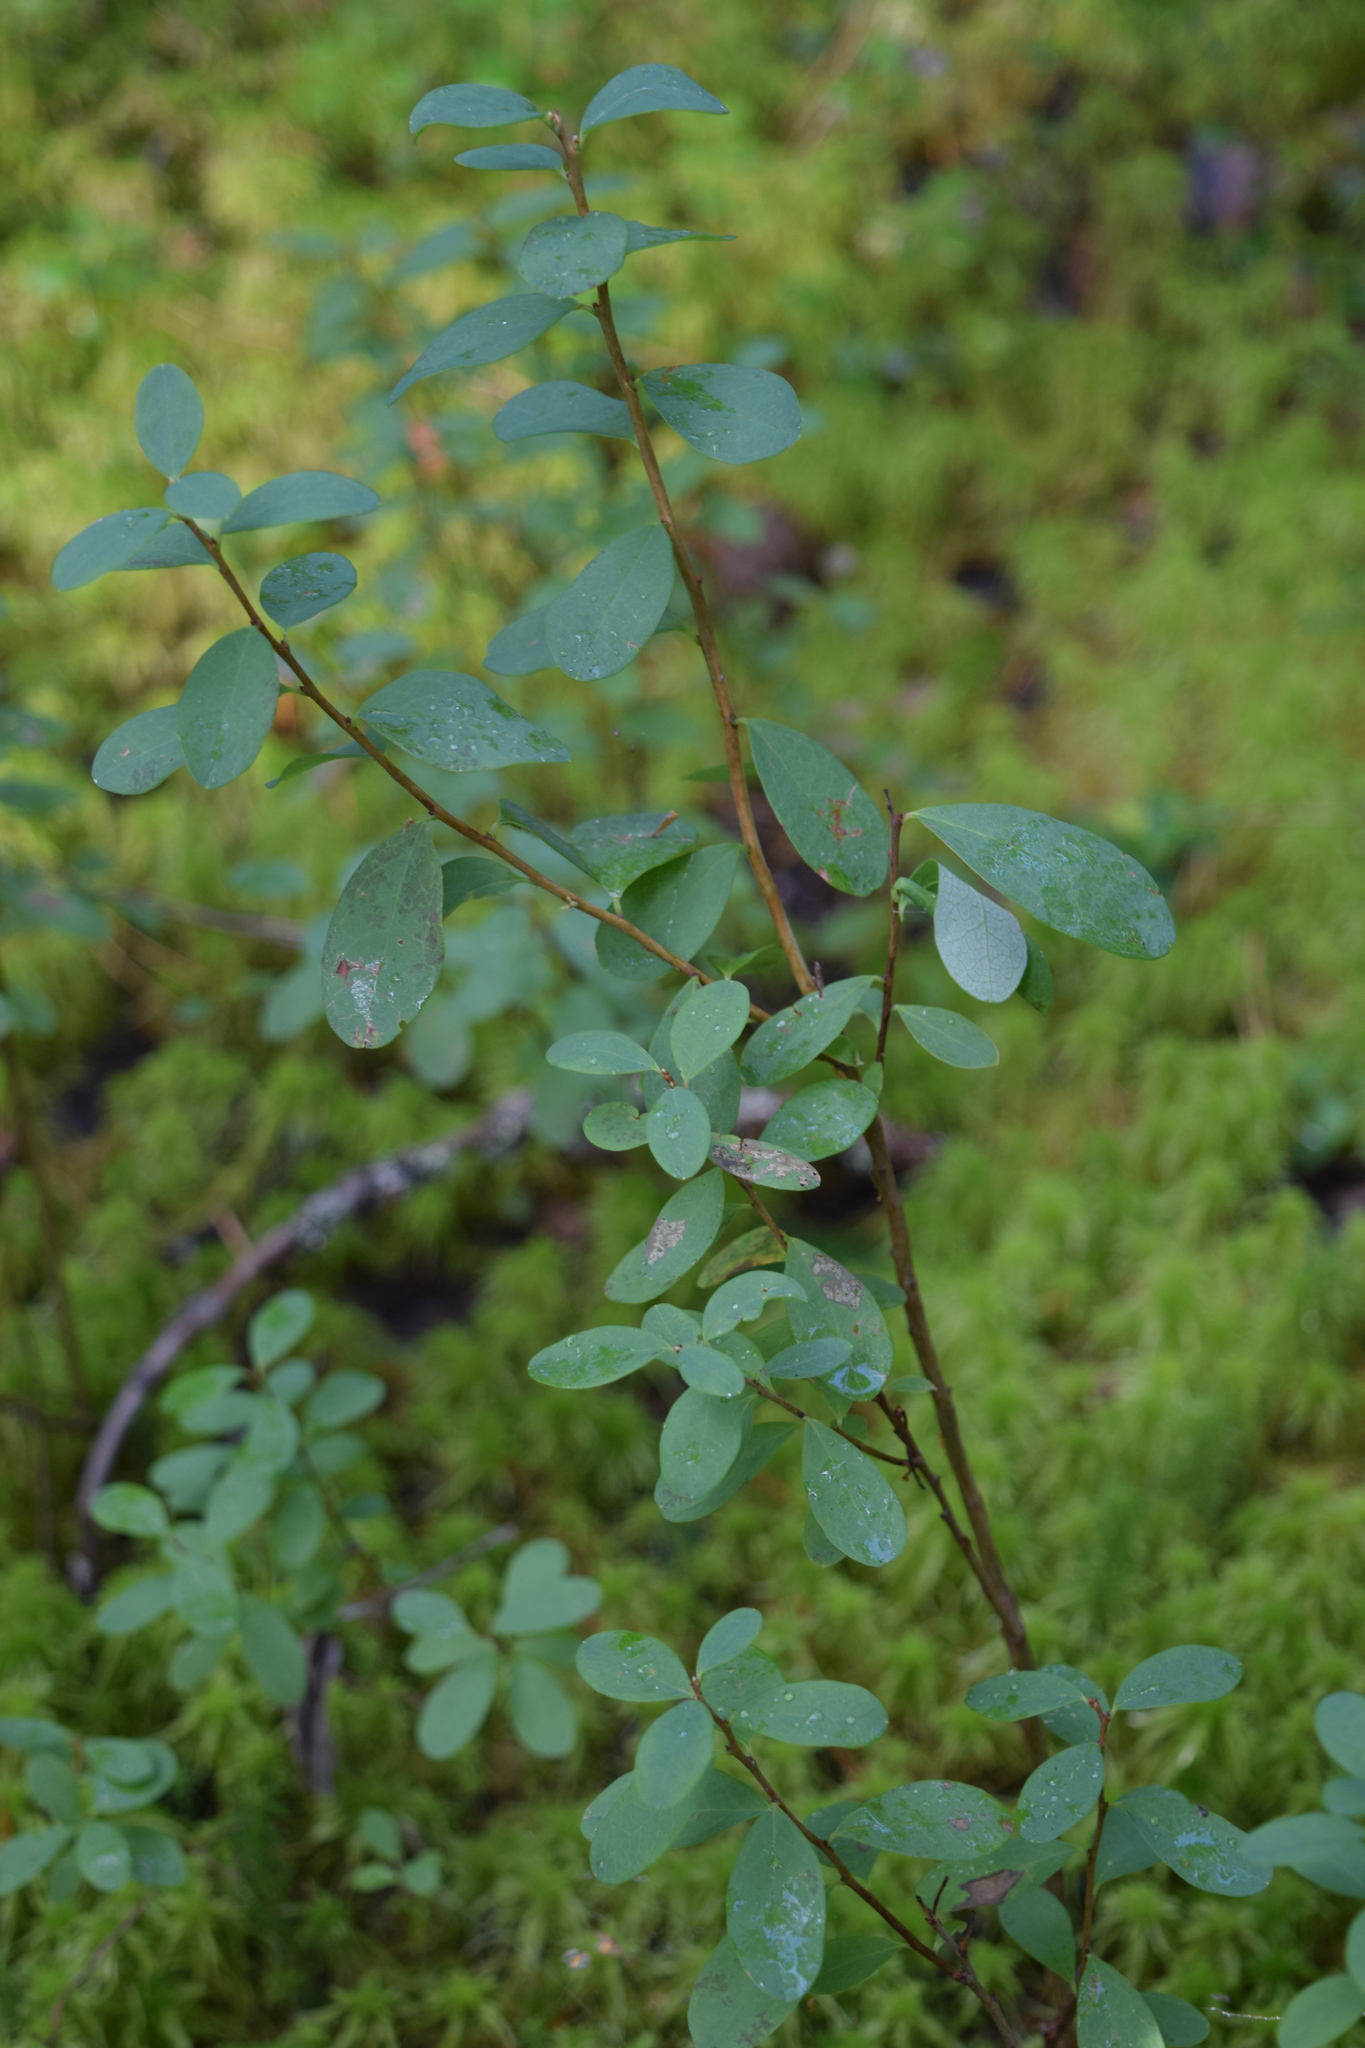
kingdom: Plantae
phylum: Tracheophyta
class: Magnoliopsida
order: Ericales
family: Ericaceae
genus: Vaccinium
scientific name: Vaccinium uliginosum
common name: Bog bilberry
